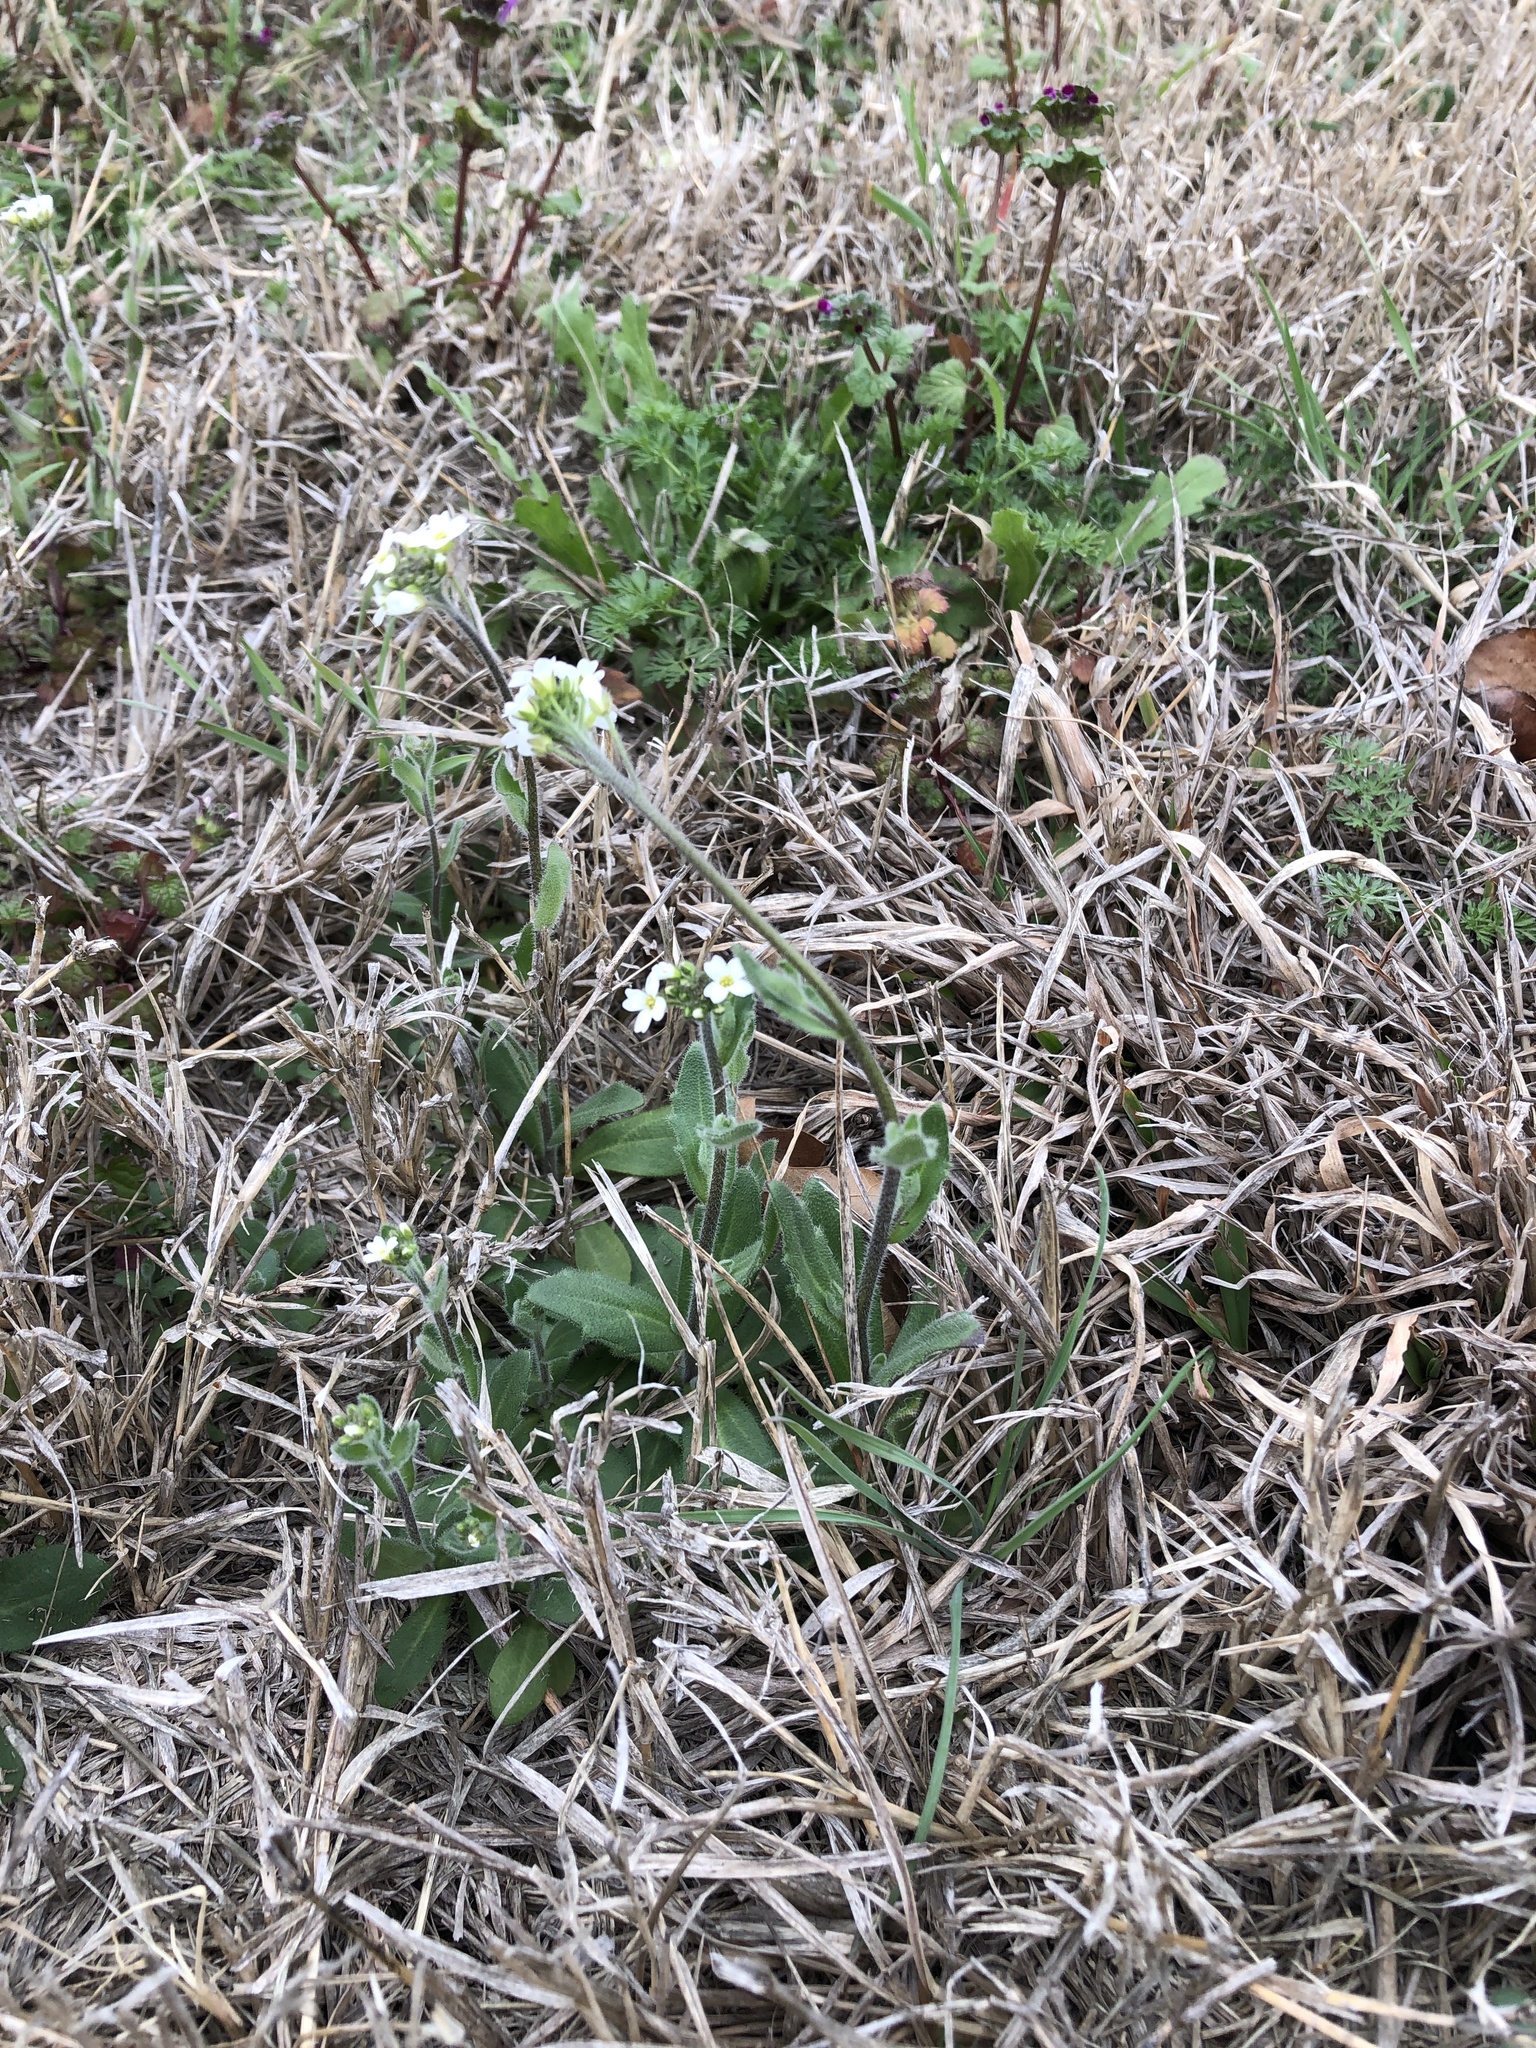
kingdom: Plantae
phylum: Tracheophyta
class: Magnoliopsida
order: Brassicales
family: Brassicaceae
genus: Tomostima
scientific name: Tomostima platycarpa
